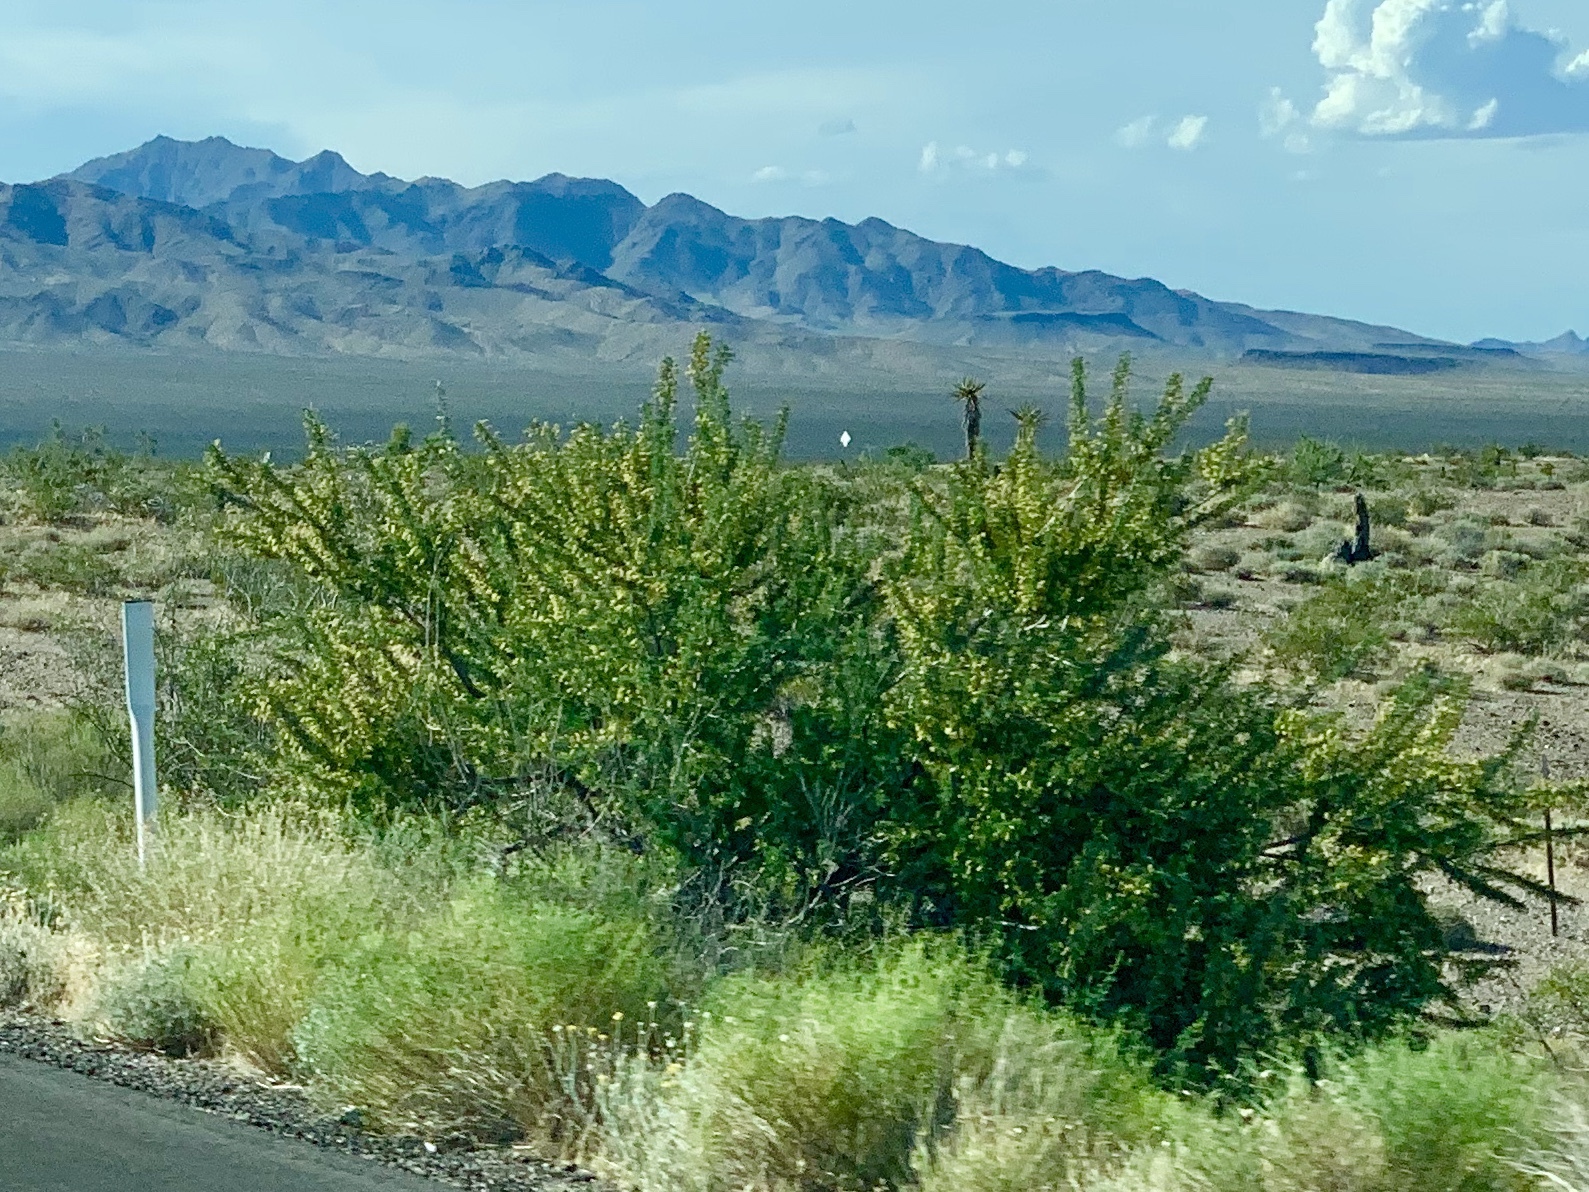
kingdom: Plantae
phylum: Tracheophyta
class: Magnoliopsida
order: Fabales
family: Fabaceae
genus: Senegalia
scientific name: Senegalia greggii
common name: Texas-mimosa
